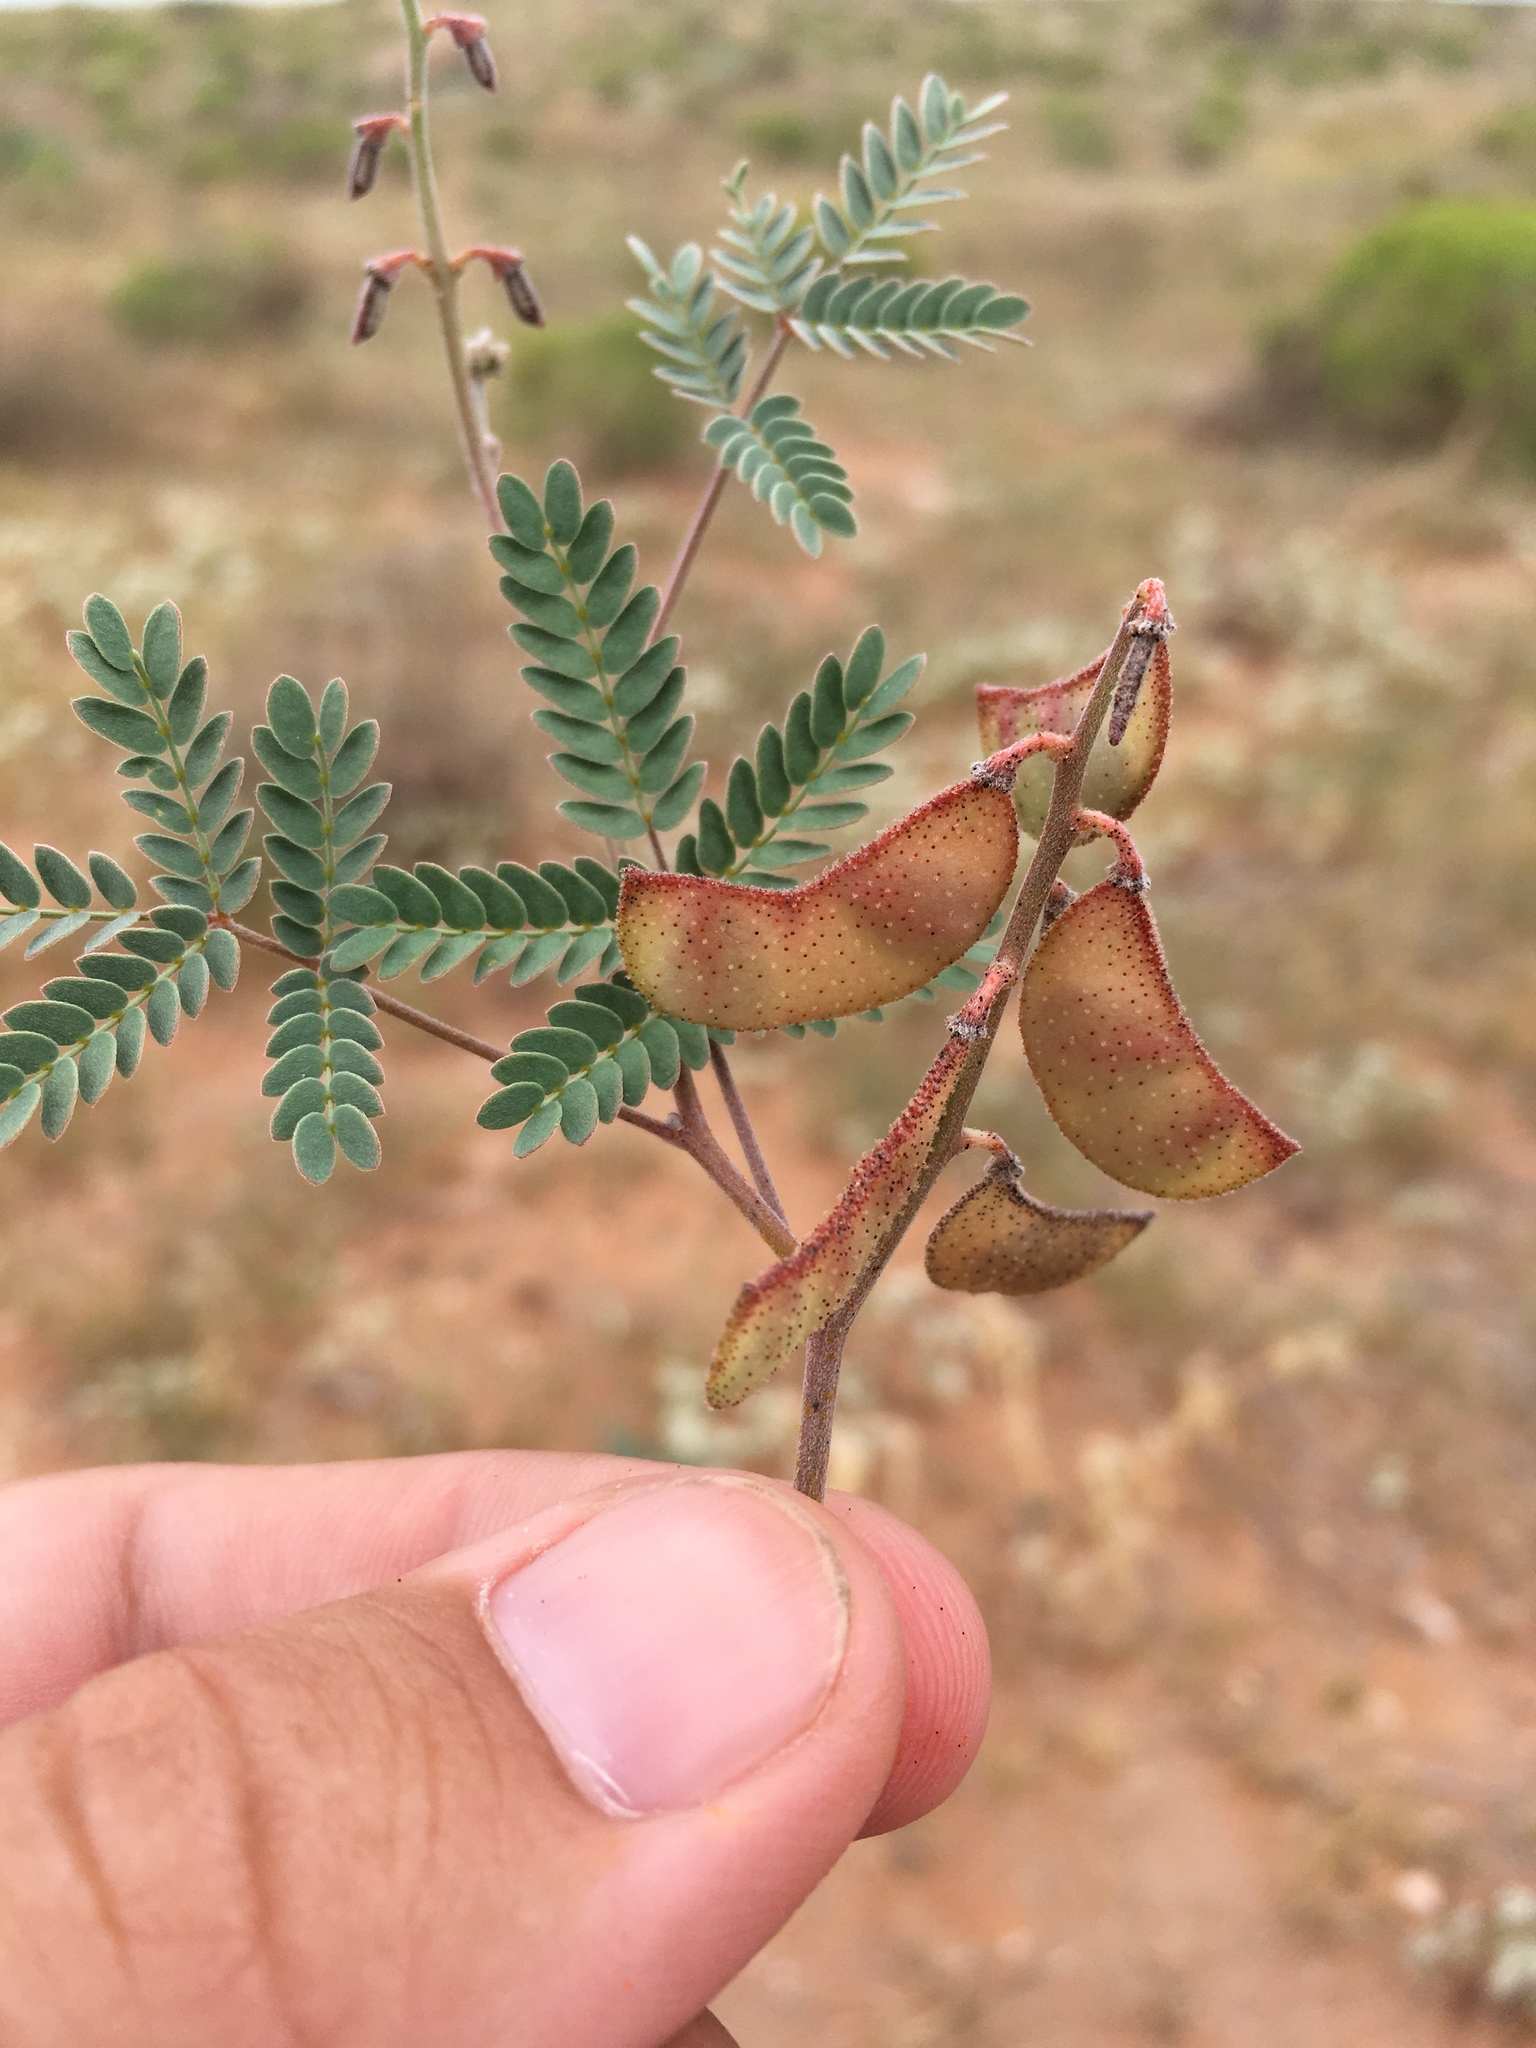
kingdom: Plantae
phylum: Tracheophyta
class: Magnoliopsida
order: Fabales
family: Fabaceae
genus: Pomaria
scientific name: Pomaria jamesii
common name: James' caesalpinia
